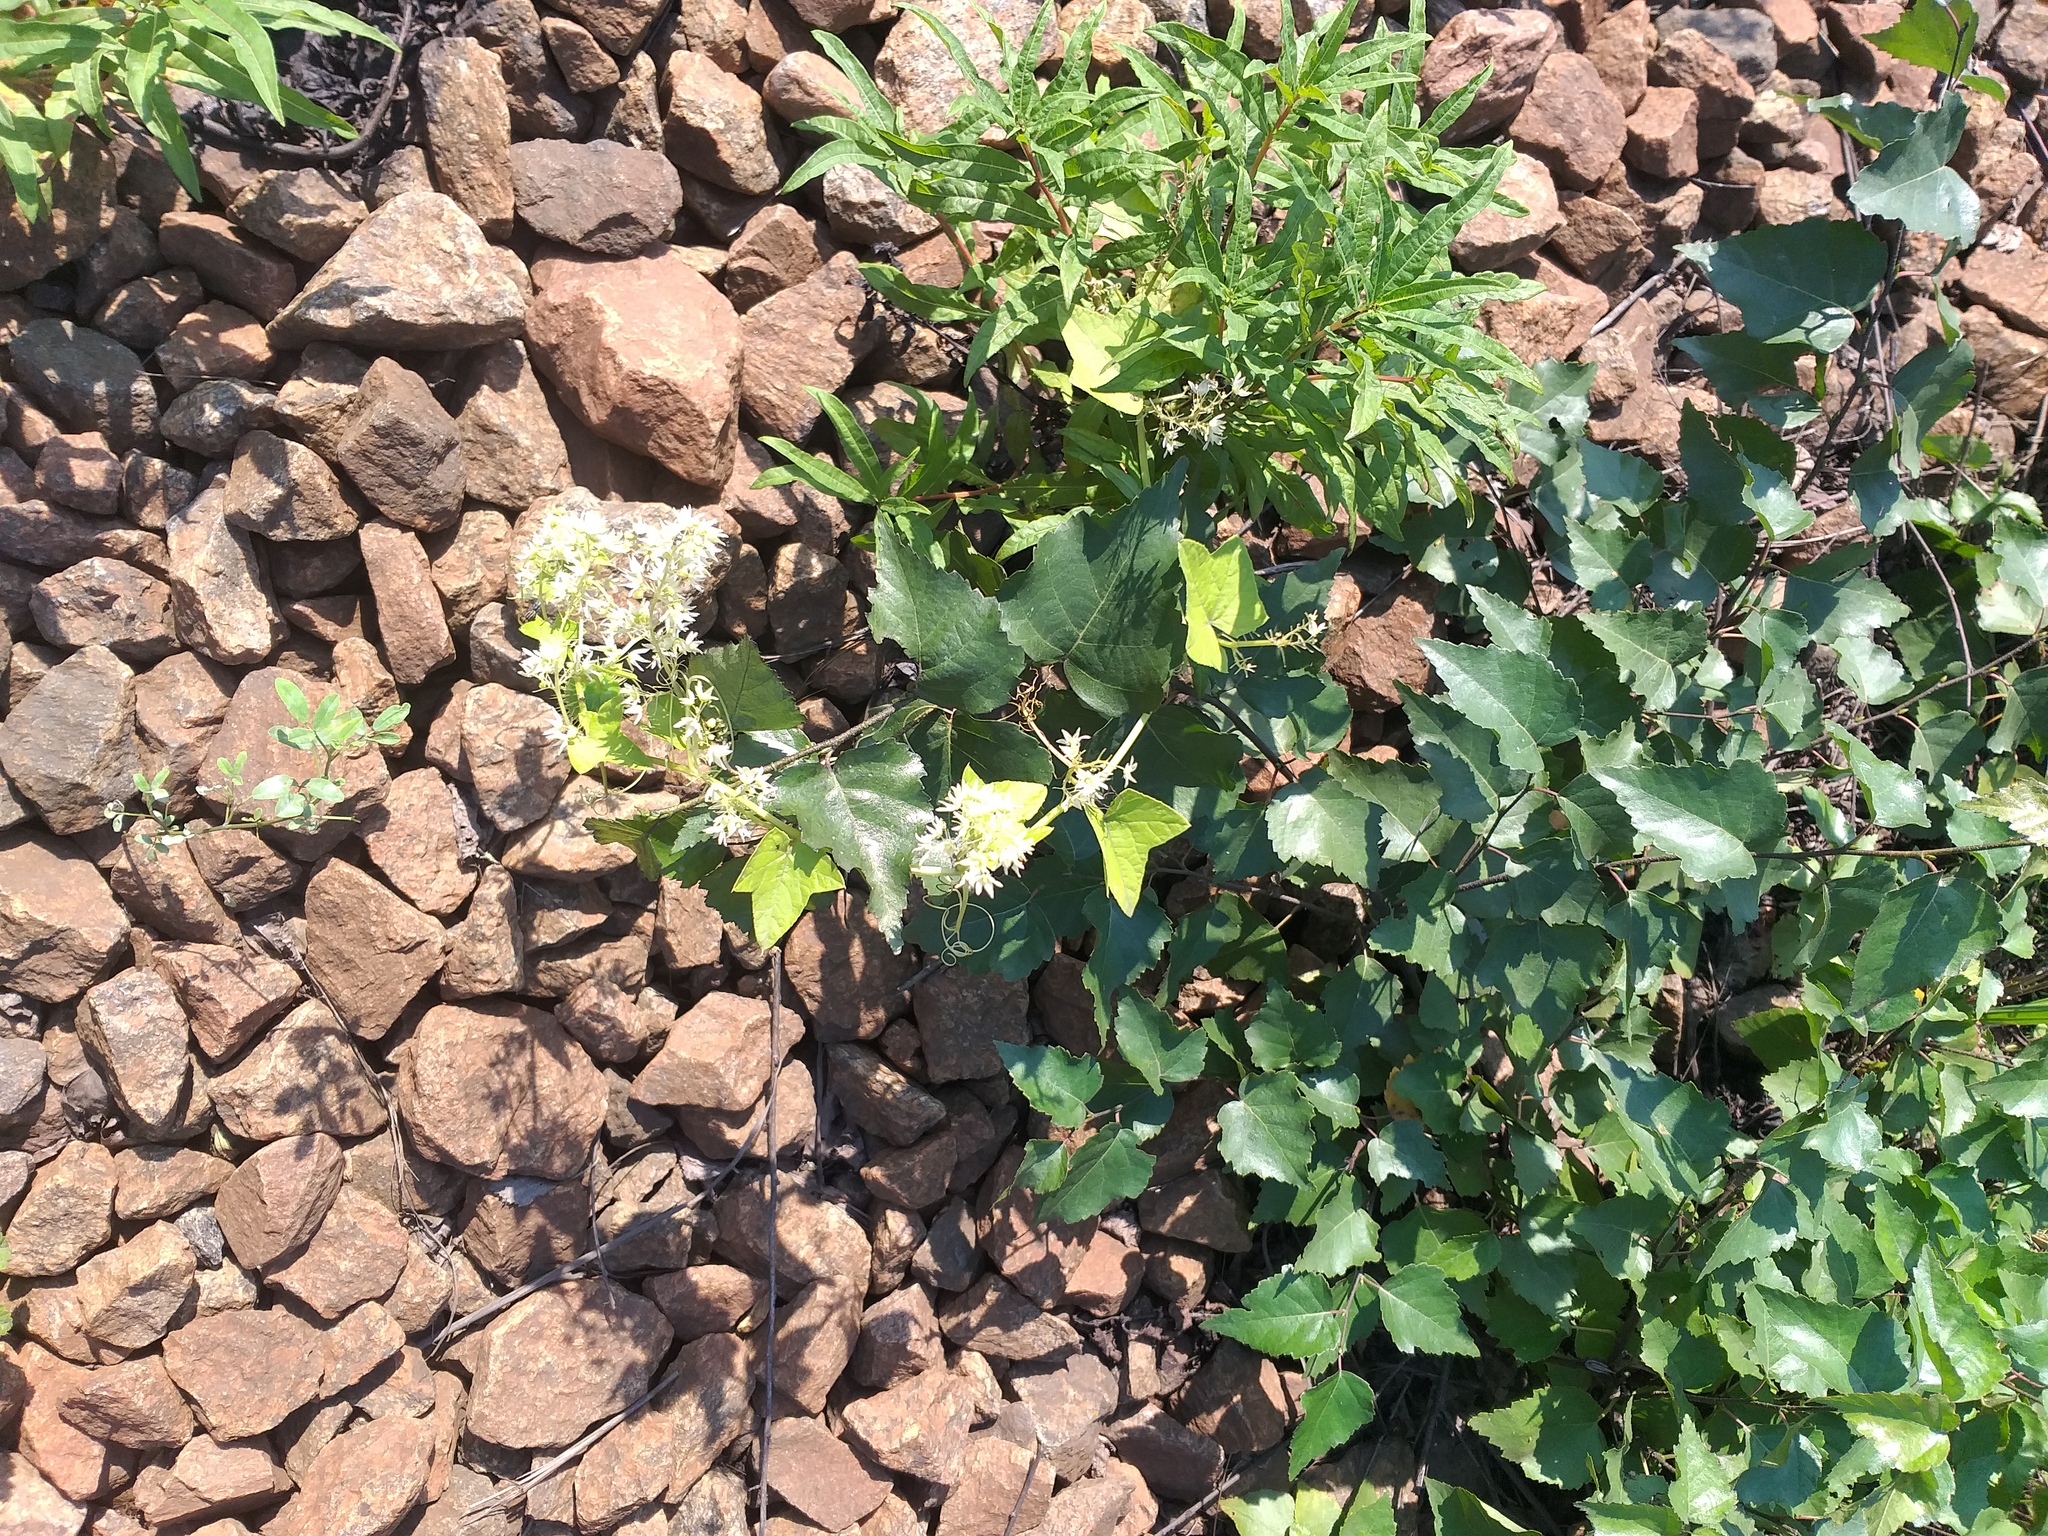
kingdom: Plantae
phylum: Tracheophyta
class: Magnoliopsida
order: Cucurbitales
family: Cucurbitaceae
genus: Echinocystis
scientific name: Echinocystis lobata
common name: Wild cucumber
